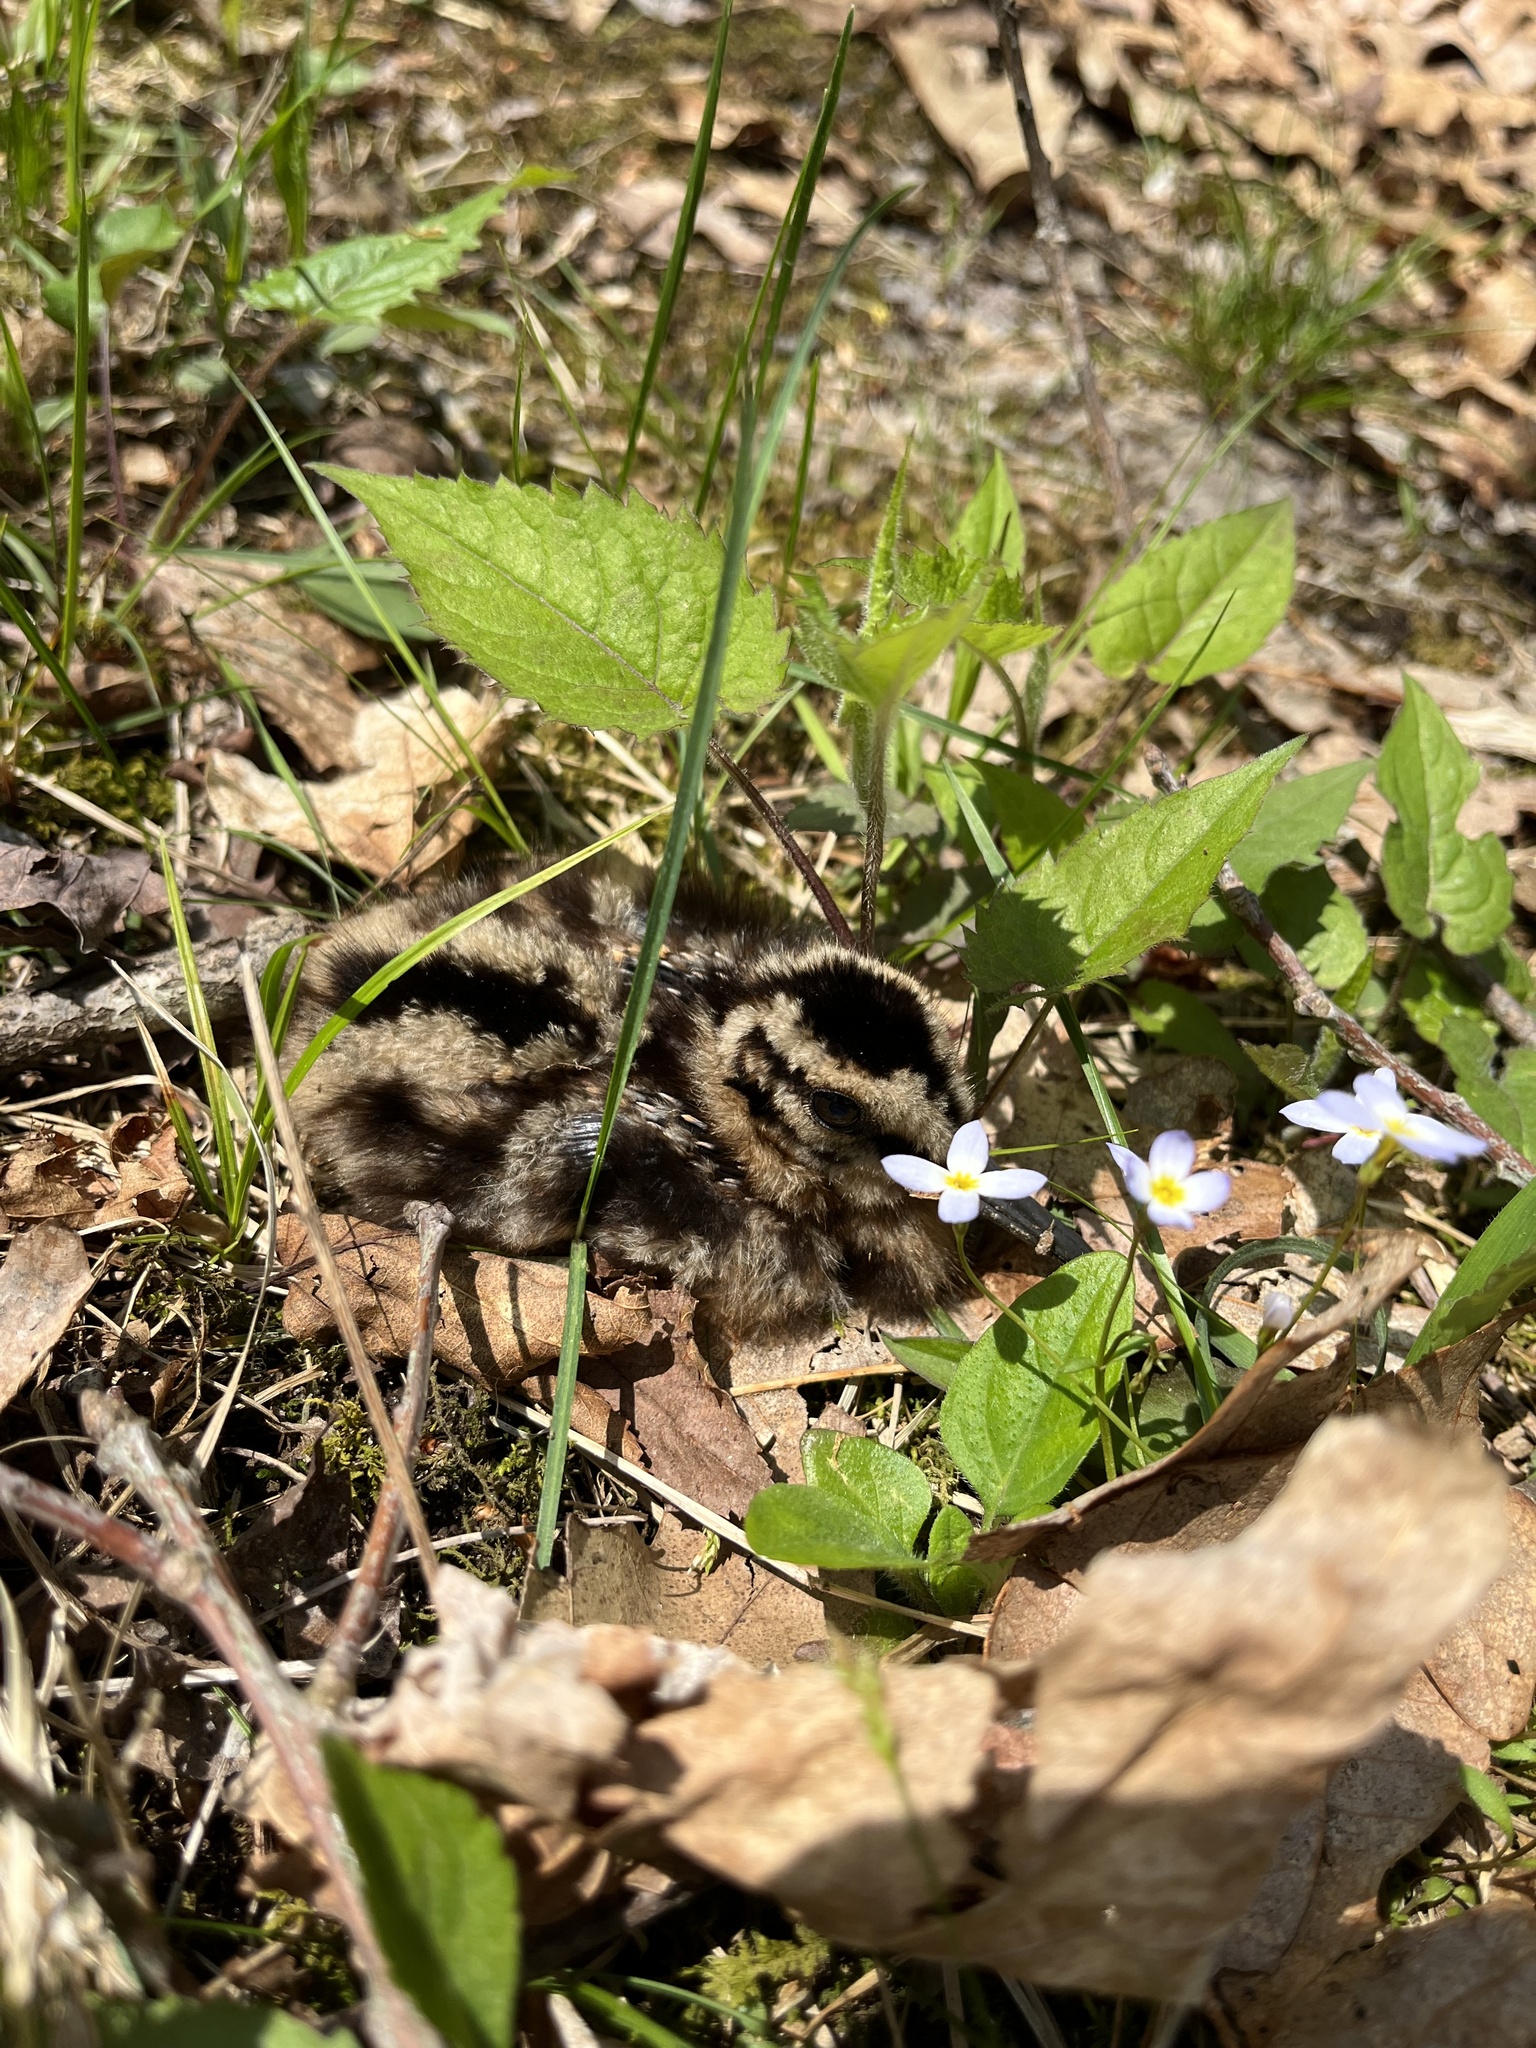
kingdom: Animalia
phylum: Chordata
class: Aves
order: Charadriiformes
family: Scolopacidae
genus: Scolopax
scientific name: Scolopax minor
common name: American woodcock
